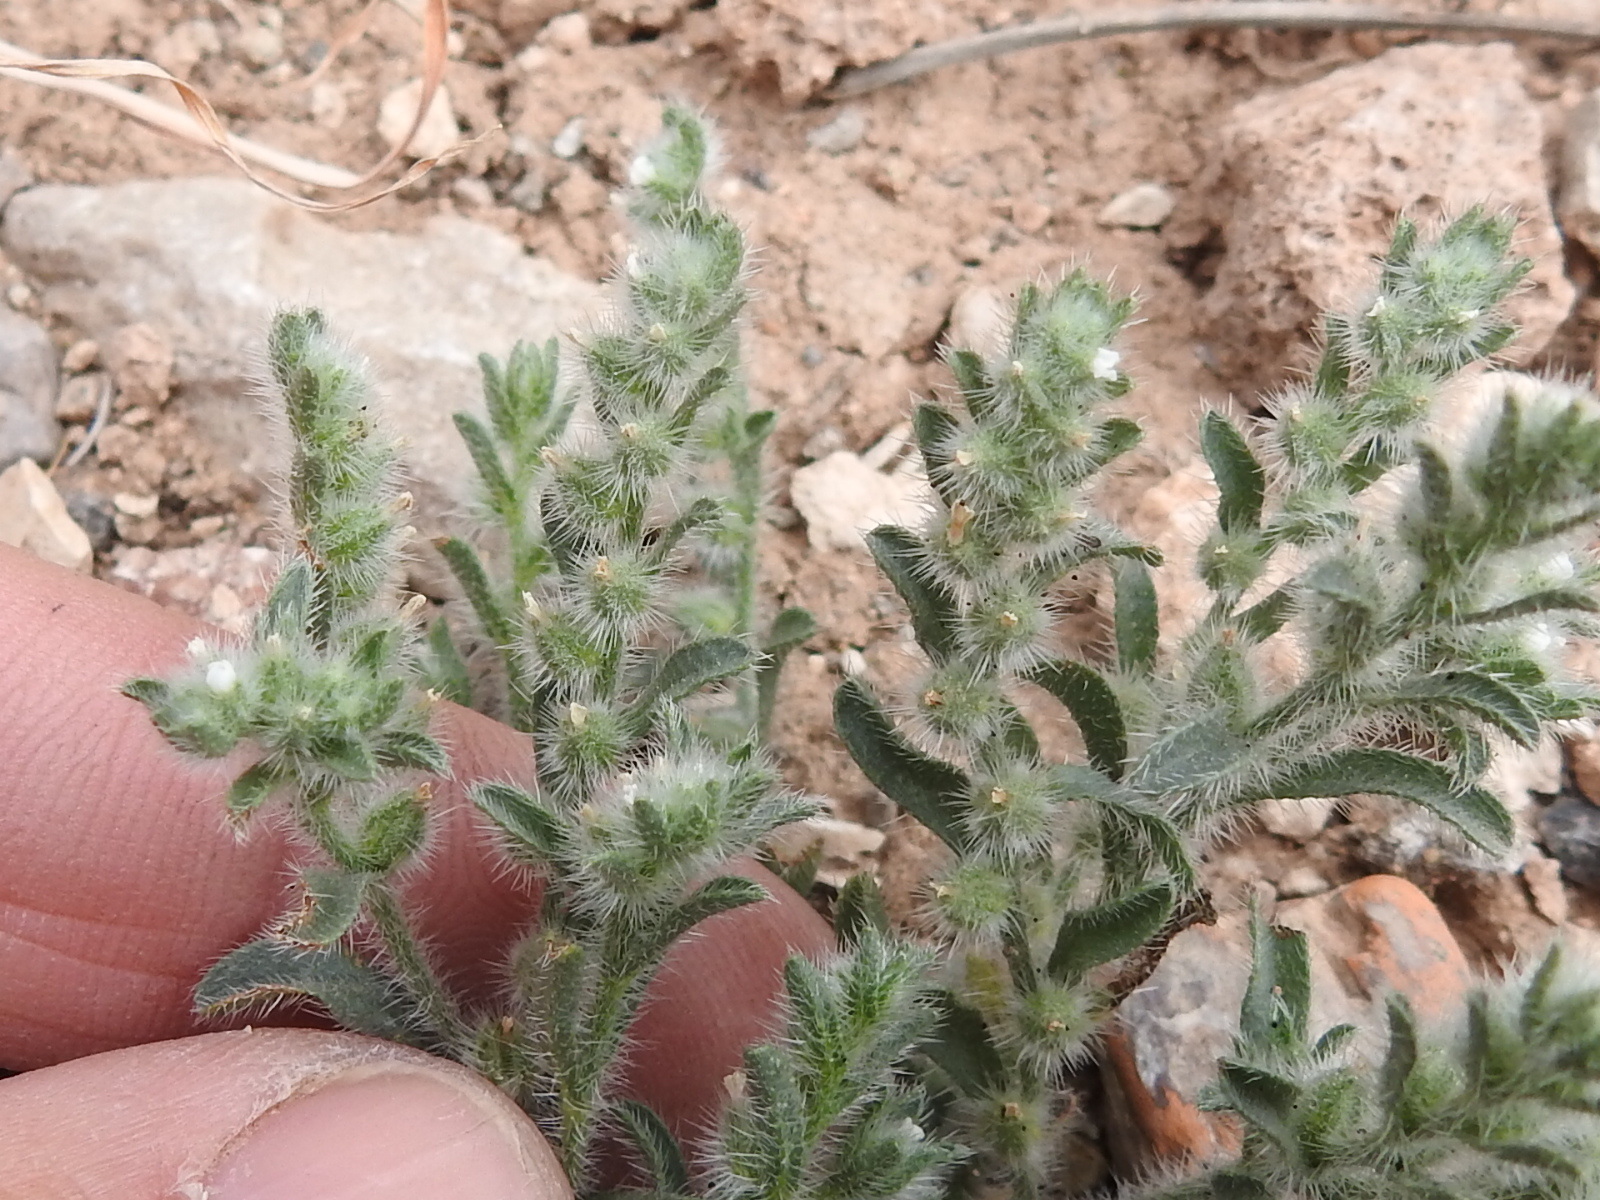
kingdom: Plantae
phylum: Tracheophyta
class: Magnoliopsida
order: Boraginales
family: Boraginaceae
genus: Johnstonella
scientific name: Johnstonella mexicana
